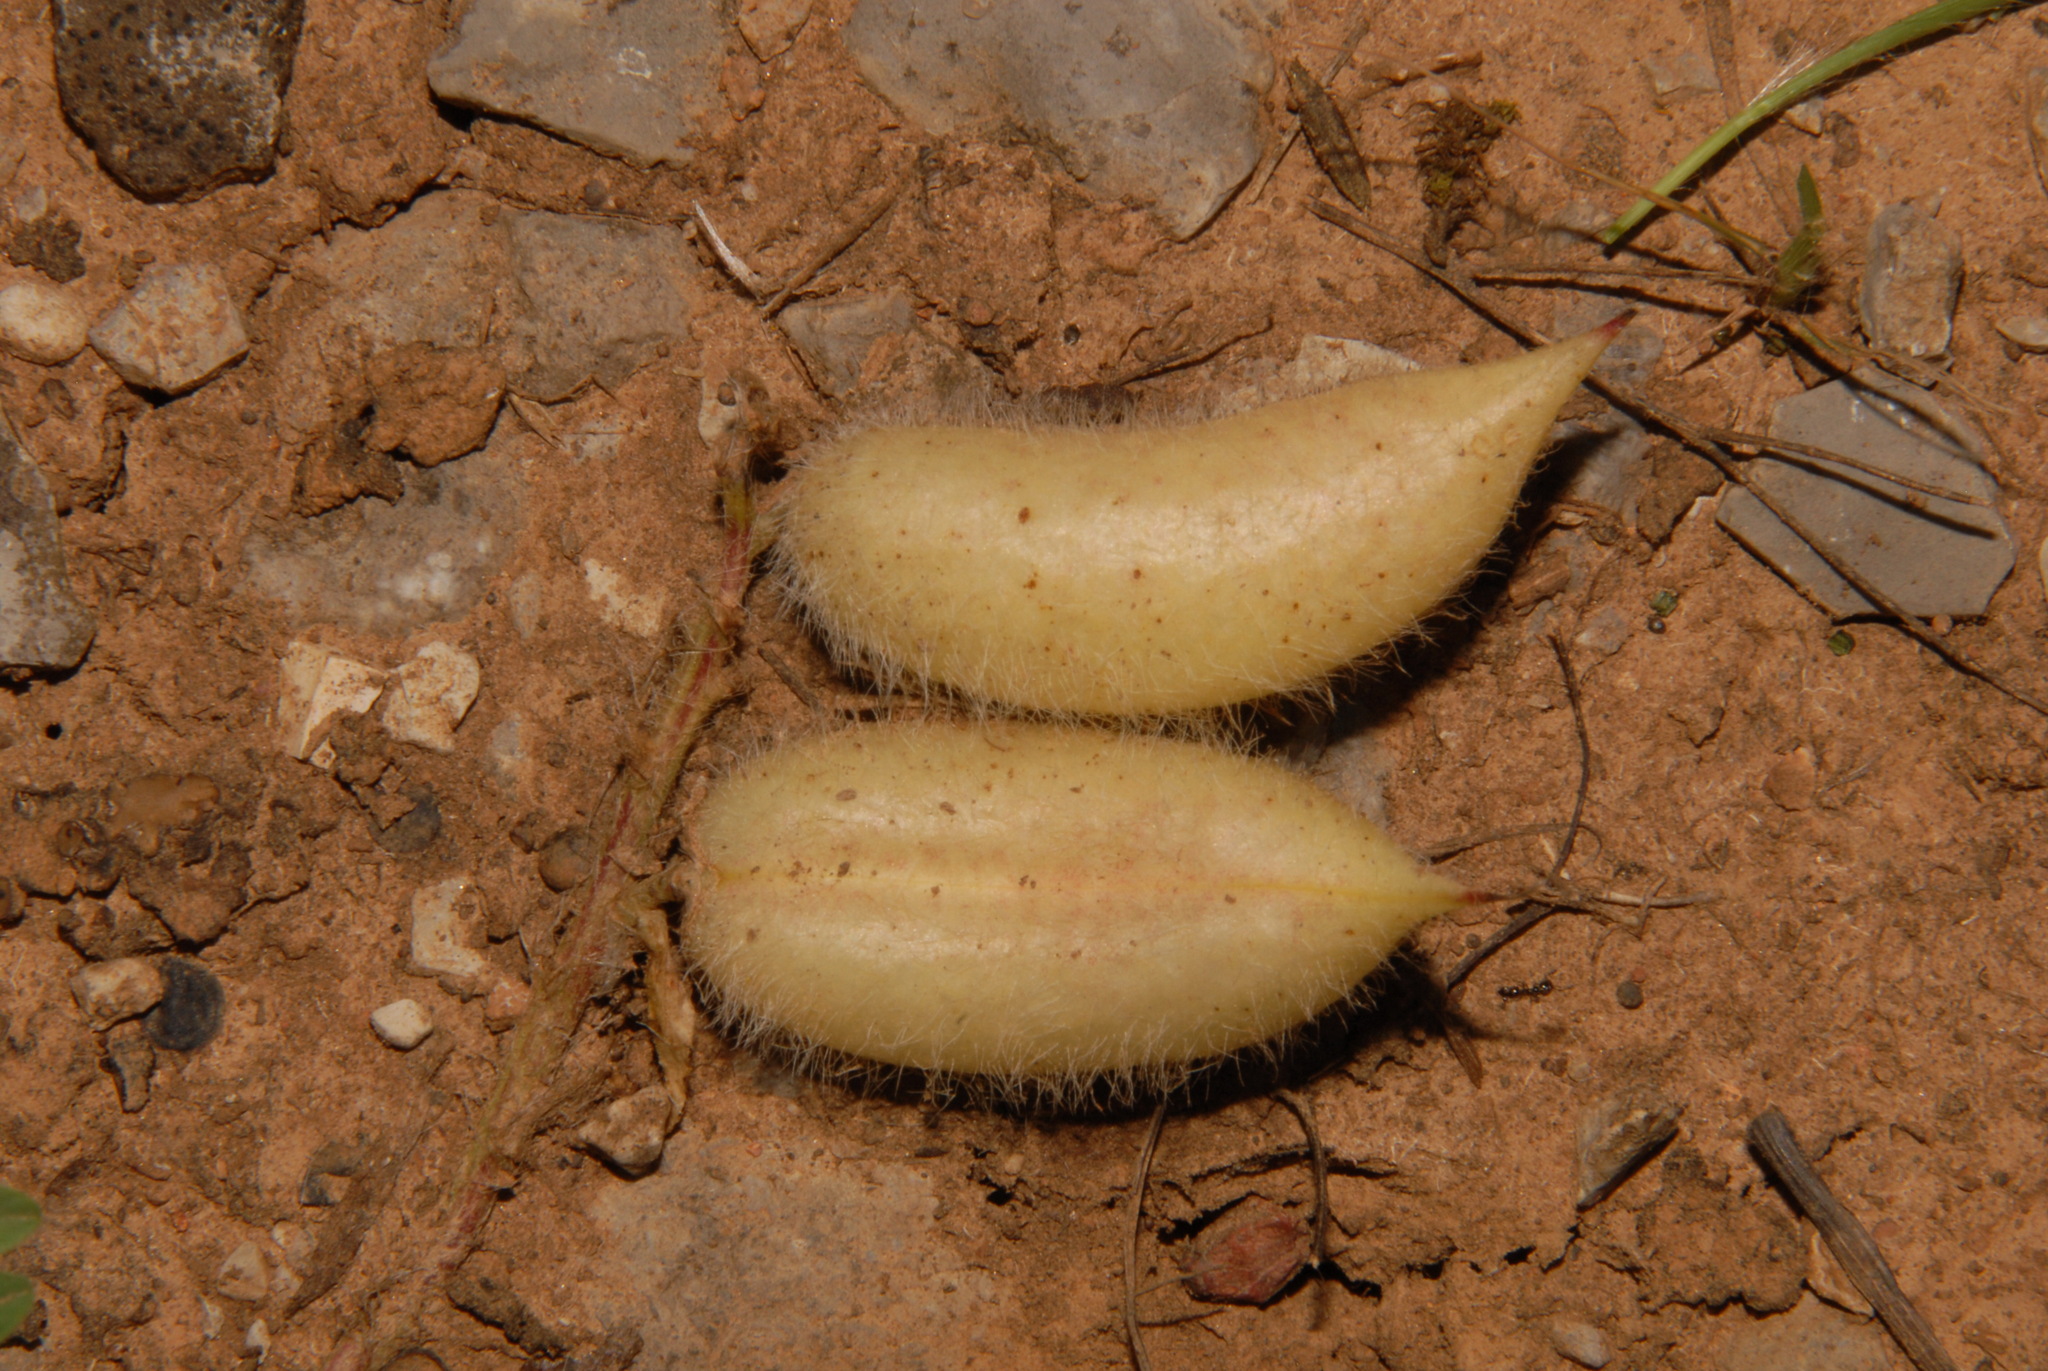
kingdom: Plantae
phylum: Tracheophyta
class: Magnoliopsida
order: Fabales
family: Fabaceae
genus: Astragalus
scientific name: Astragalus tennesseensis
